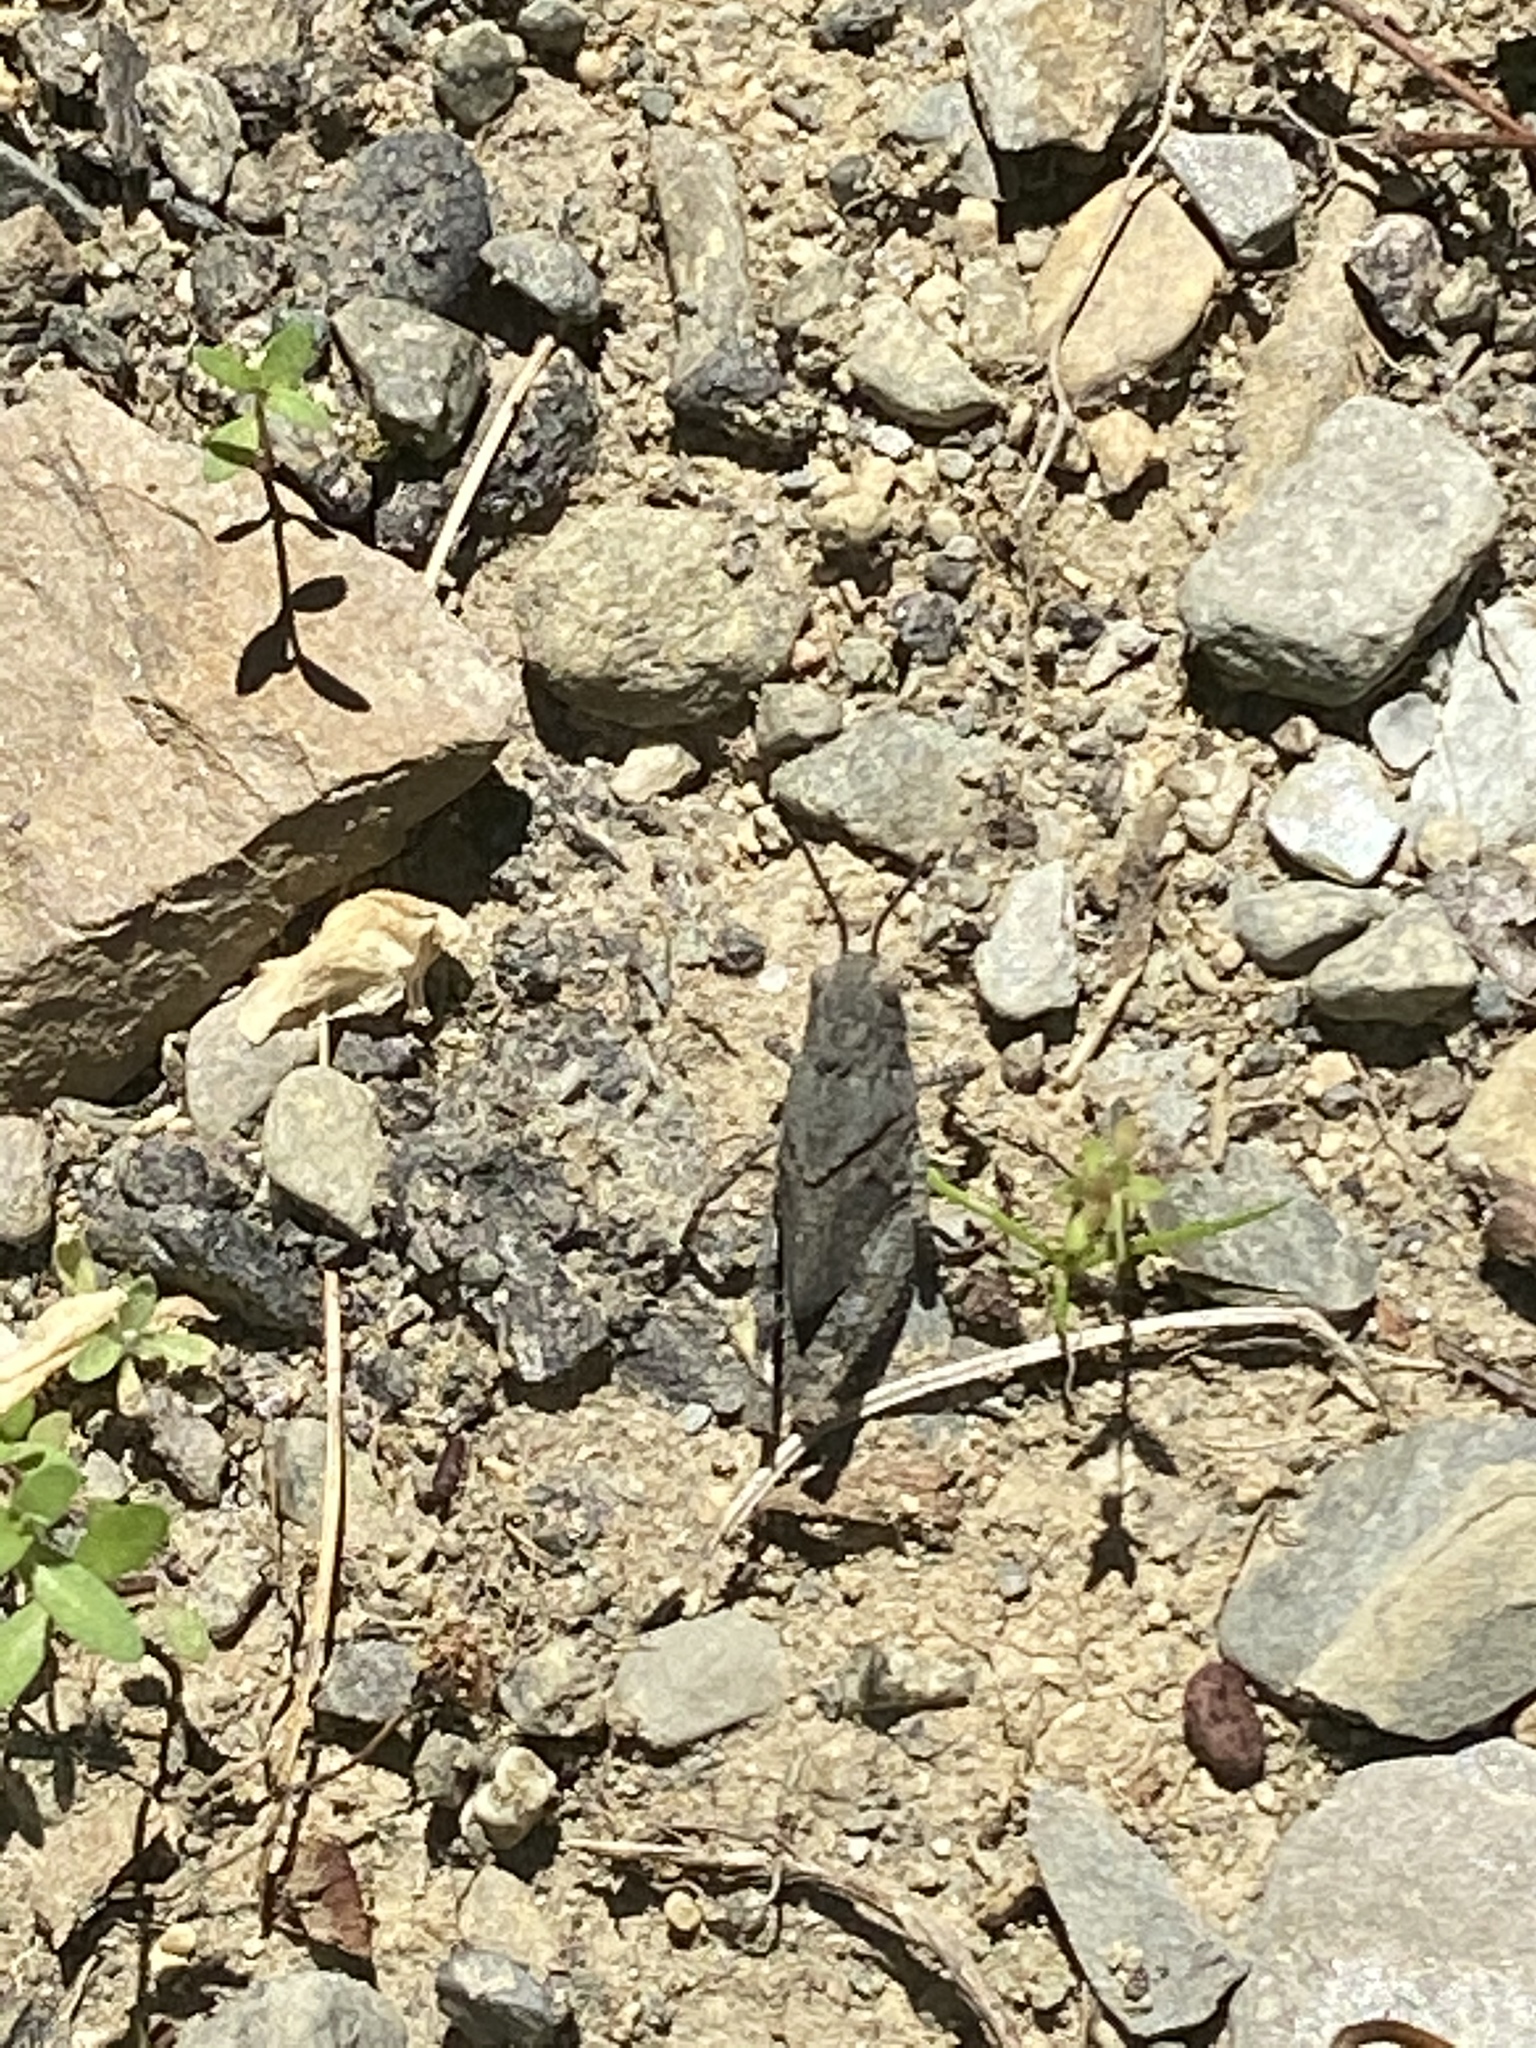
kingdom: Animalia
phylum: Arthropoda
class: Insecta
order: Orthoptera
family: Acrididae
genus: Dissosteira
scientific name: Dissosteira carolina
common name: Carolina grasshopper
